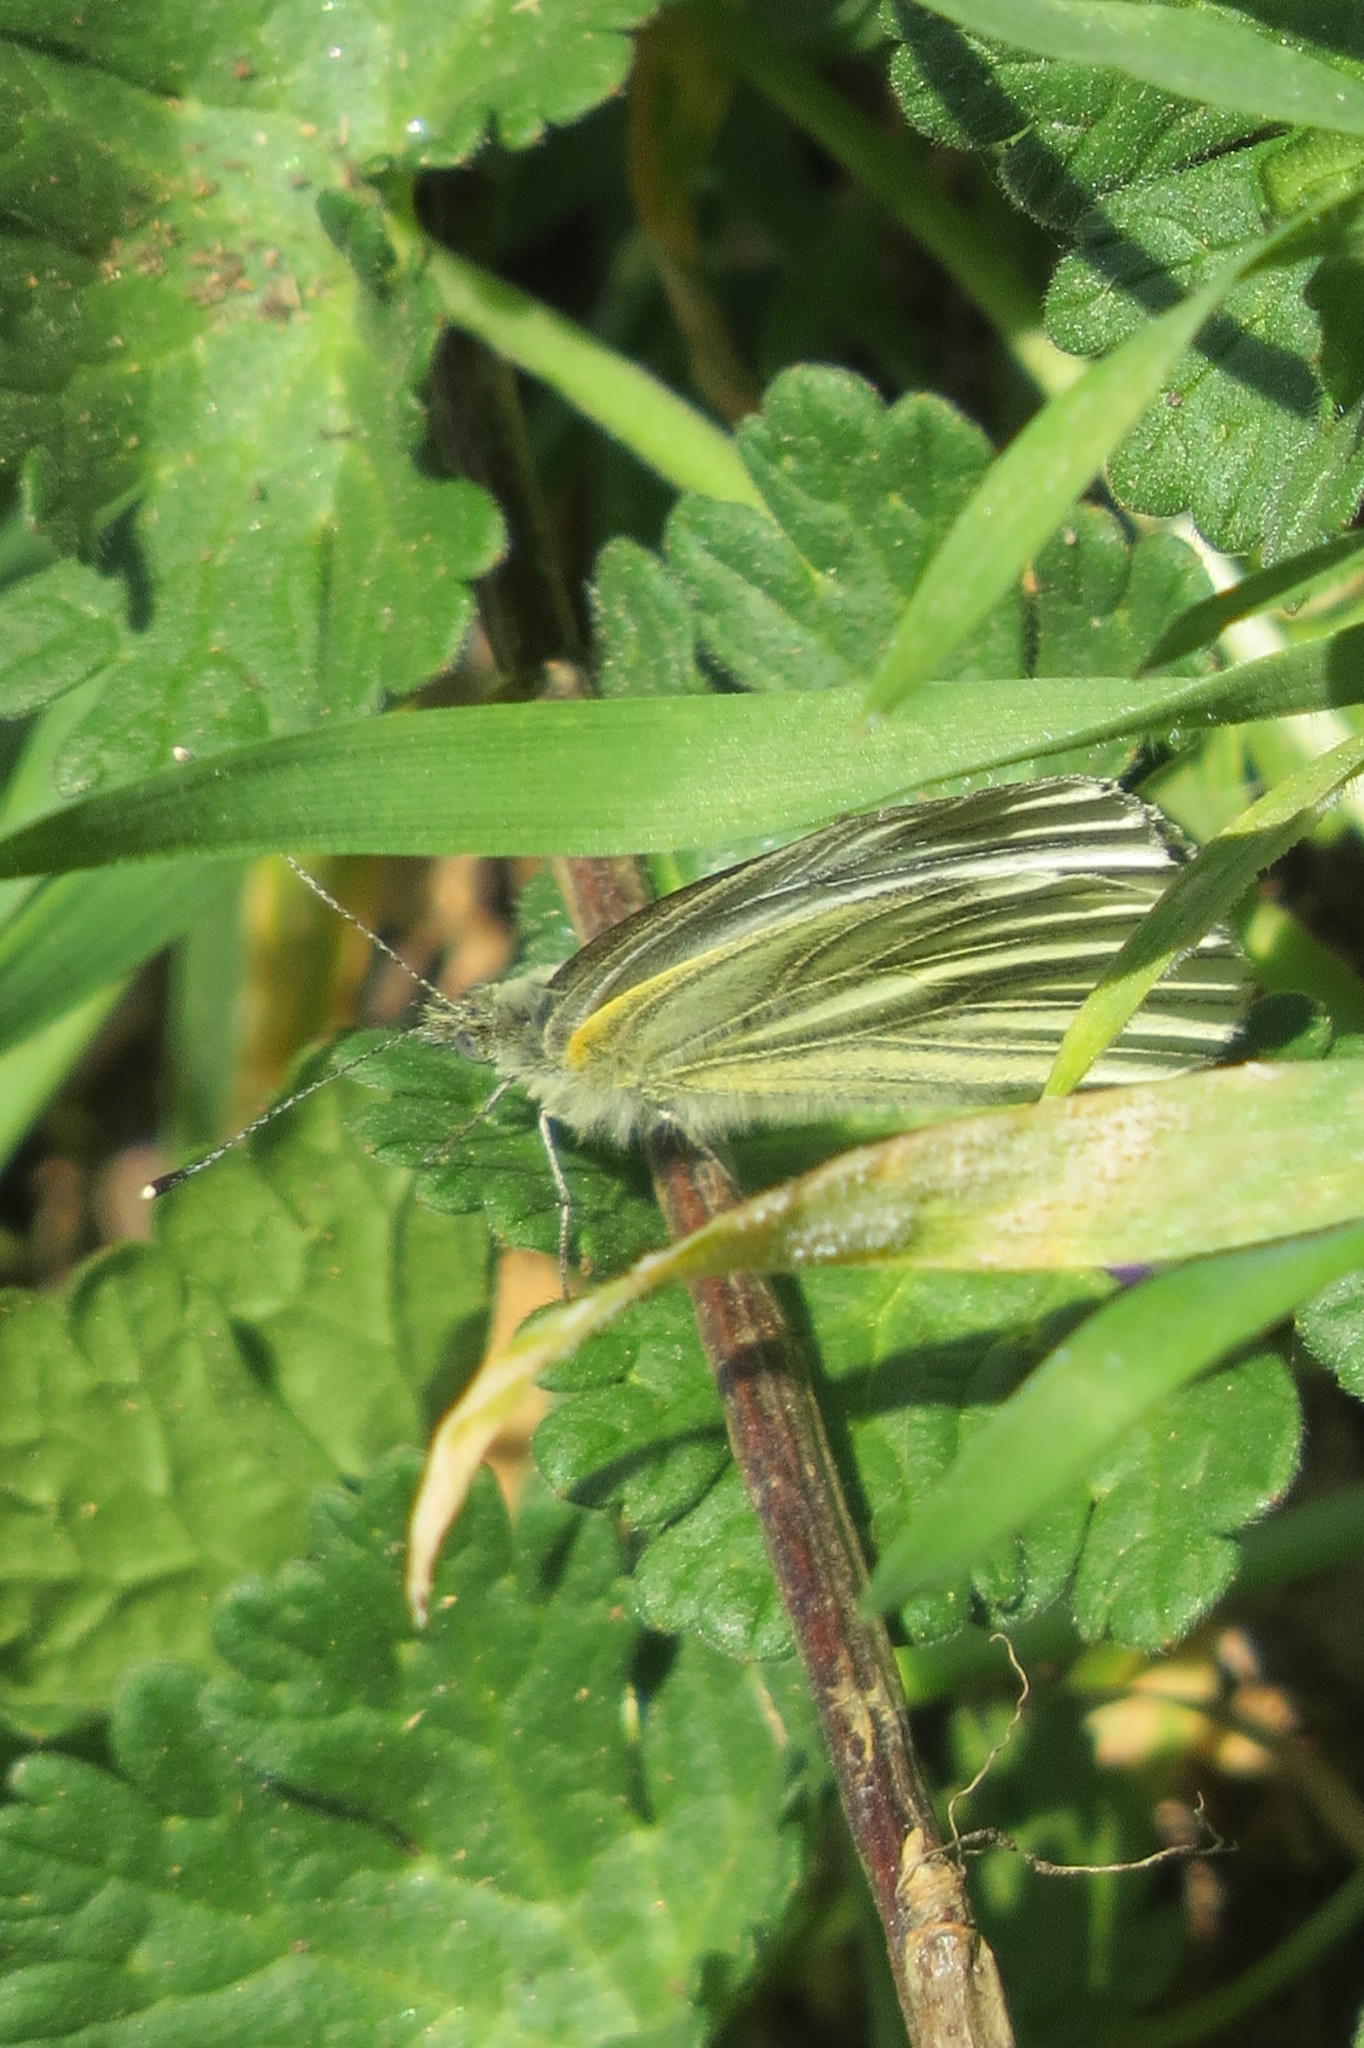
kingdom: Animalia
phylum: Arthropoda
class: Insecta
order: Lepidoptera
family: Pieridae
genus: Pieris
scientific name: Pieris napi
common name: Green-veined white
